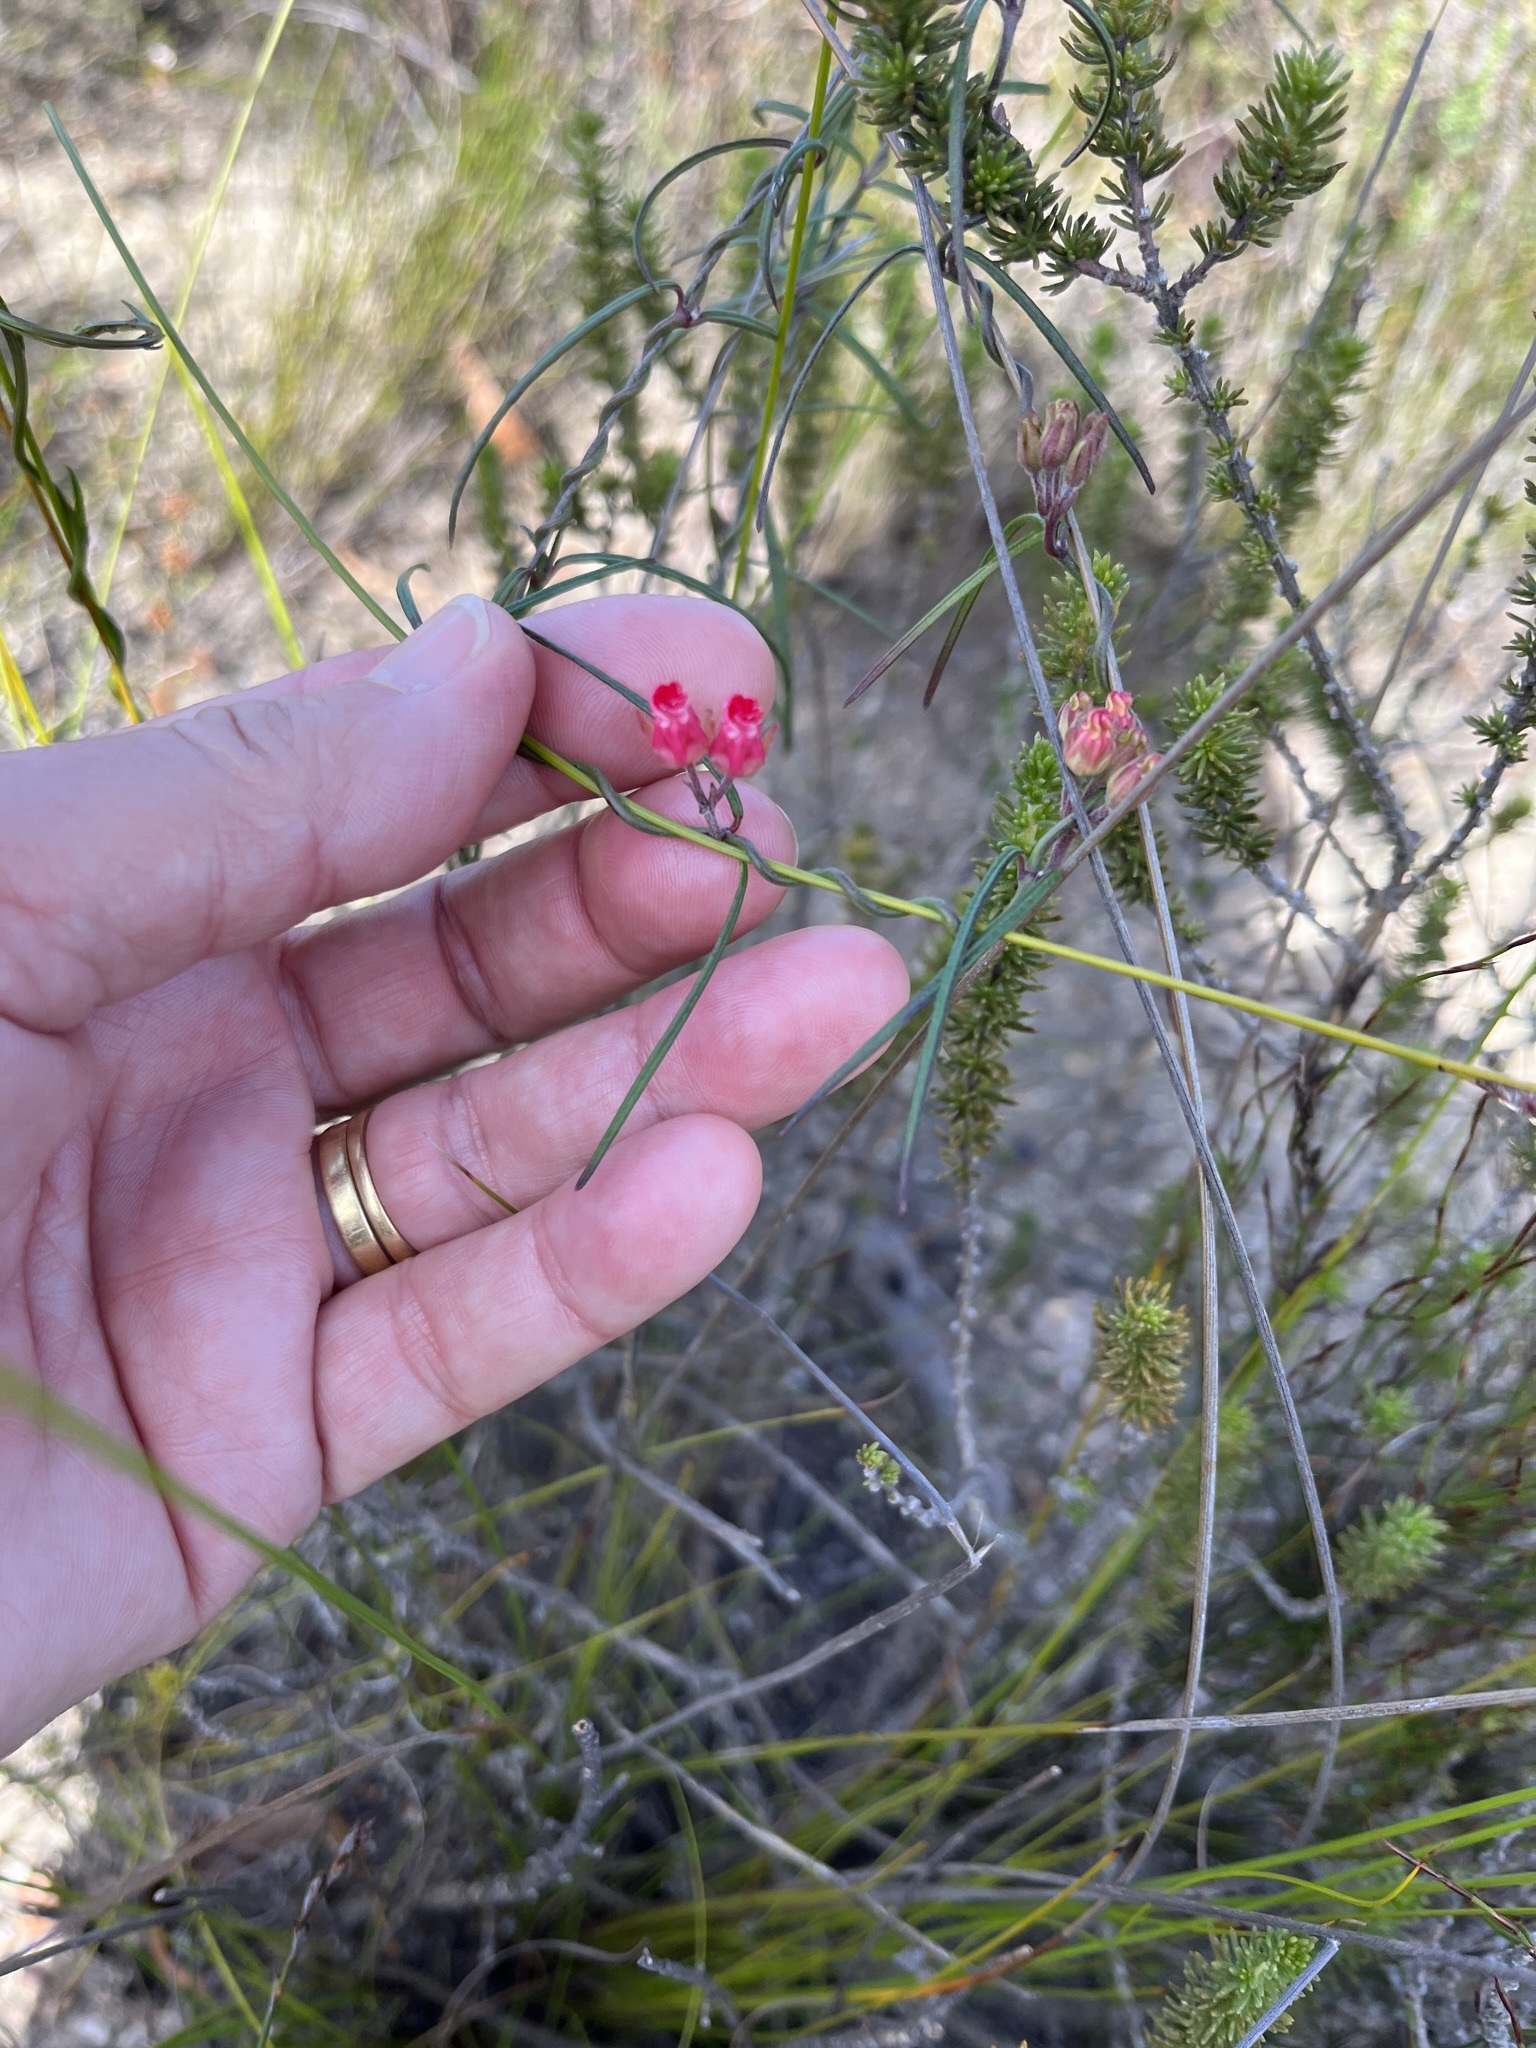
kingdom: Plantae
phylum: Tracheophyta
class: Magnoliopsida
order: Gentianales
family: Apocynaceae
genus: Microloma
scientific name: Microloma tenuifolium
